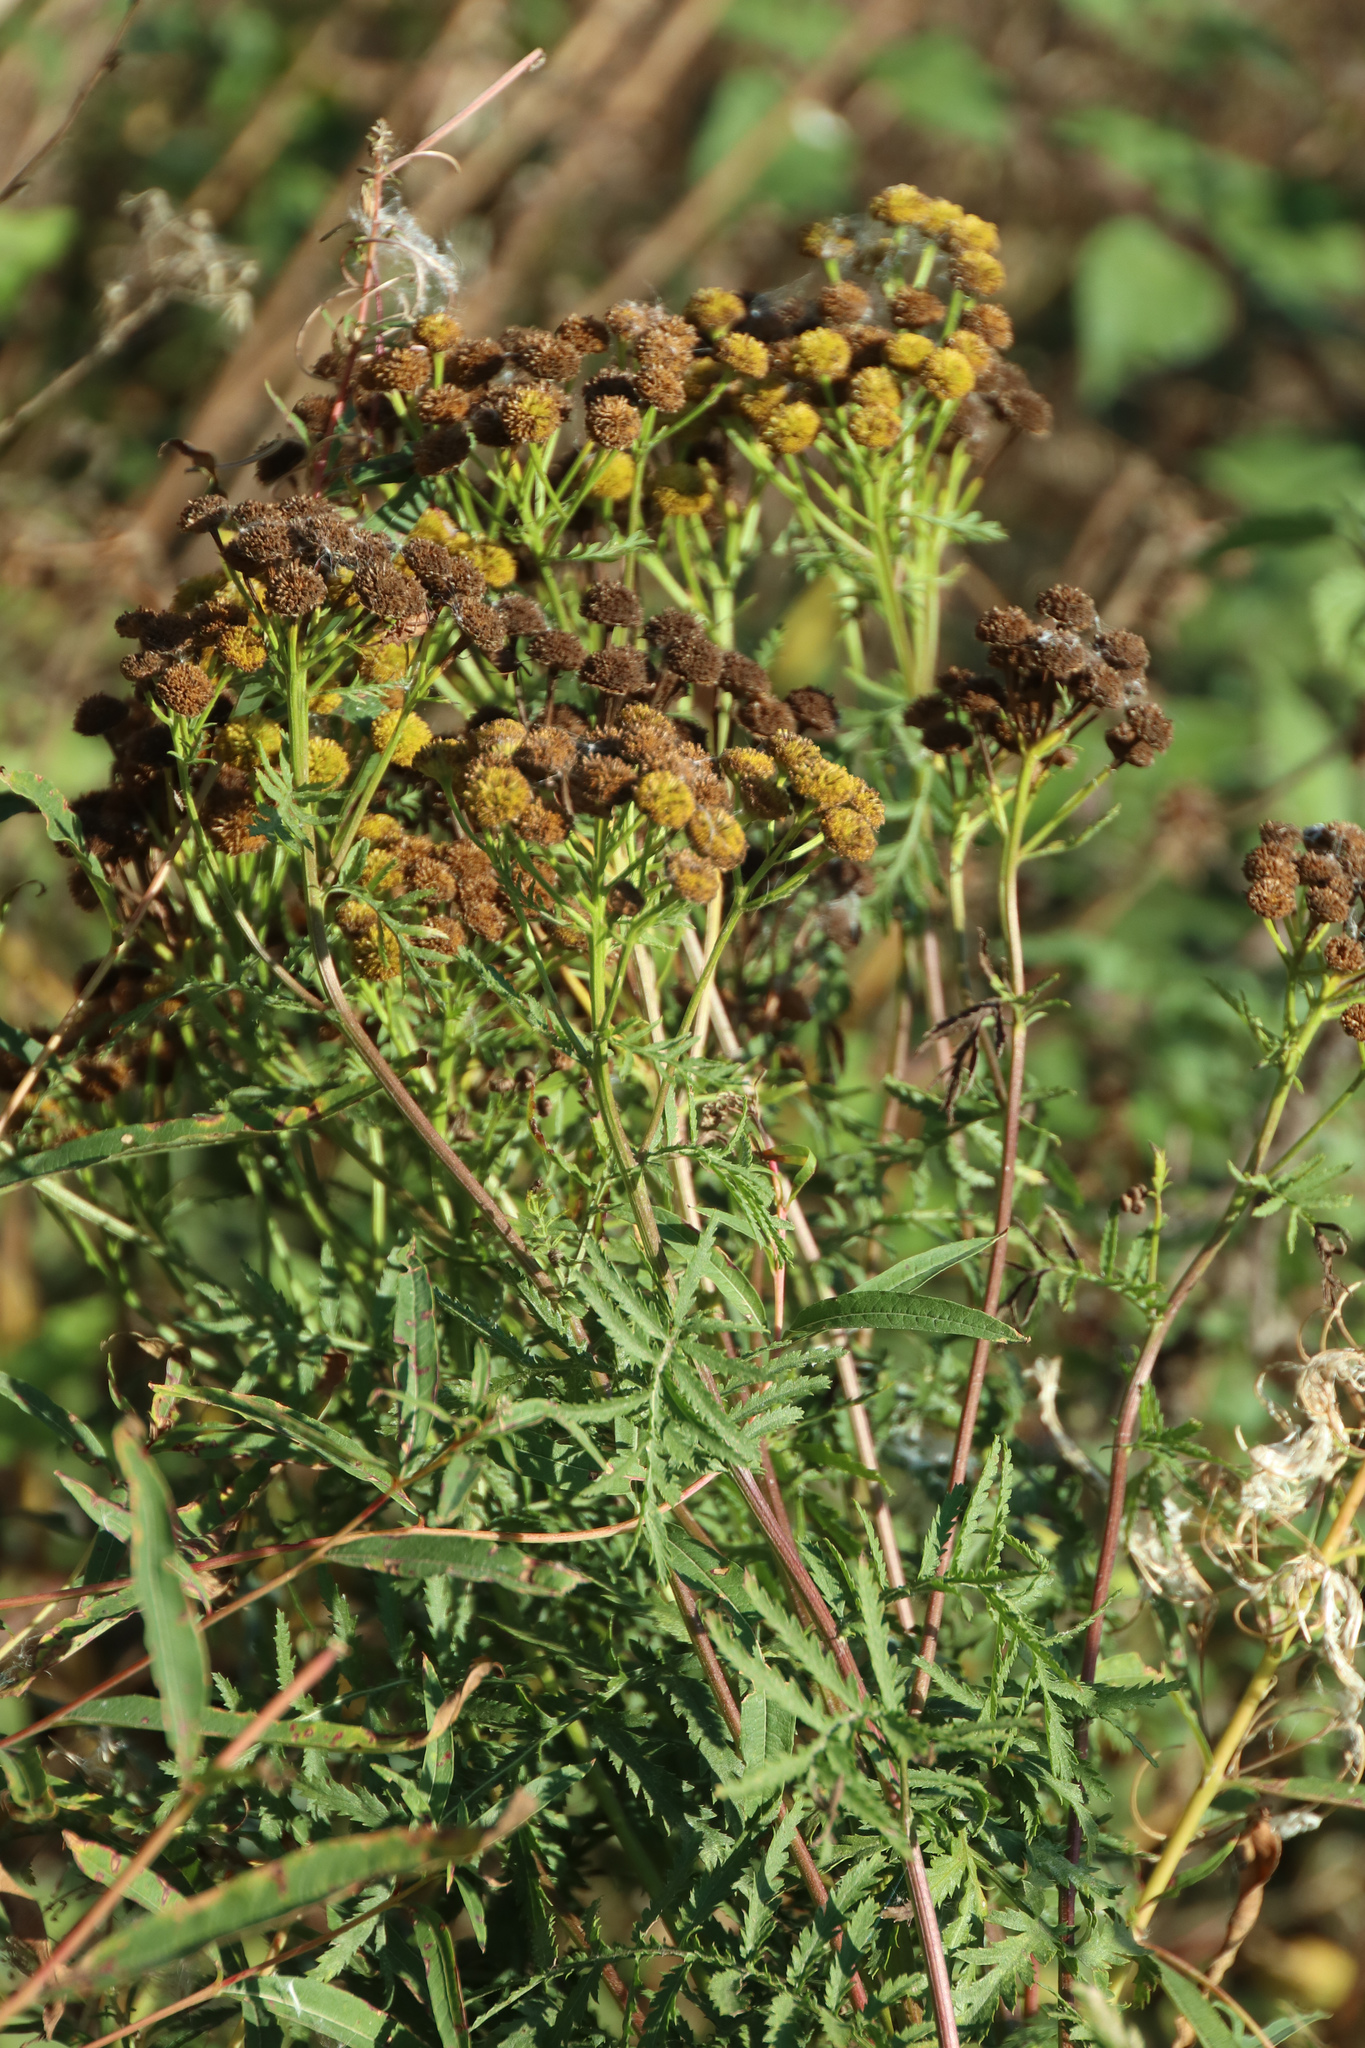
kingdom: Plantae
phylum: Tracheophyta
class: Magnoliopsida
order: Asterales
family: Asteraceae
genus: Tanacetum
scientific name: Tanacetum vulgare
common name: Common tansy
